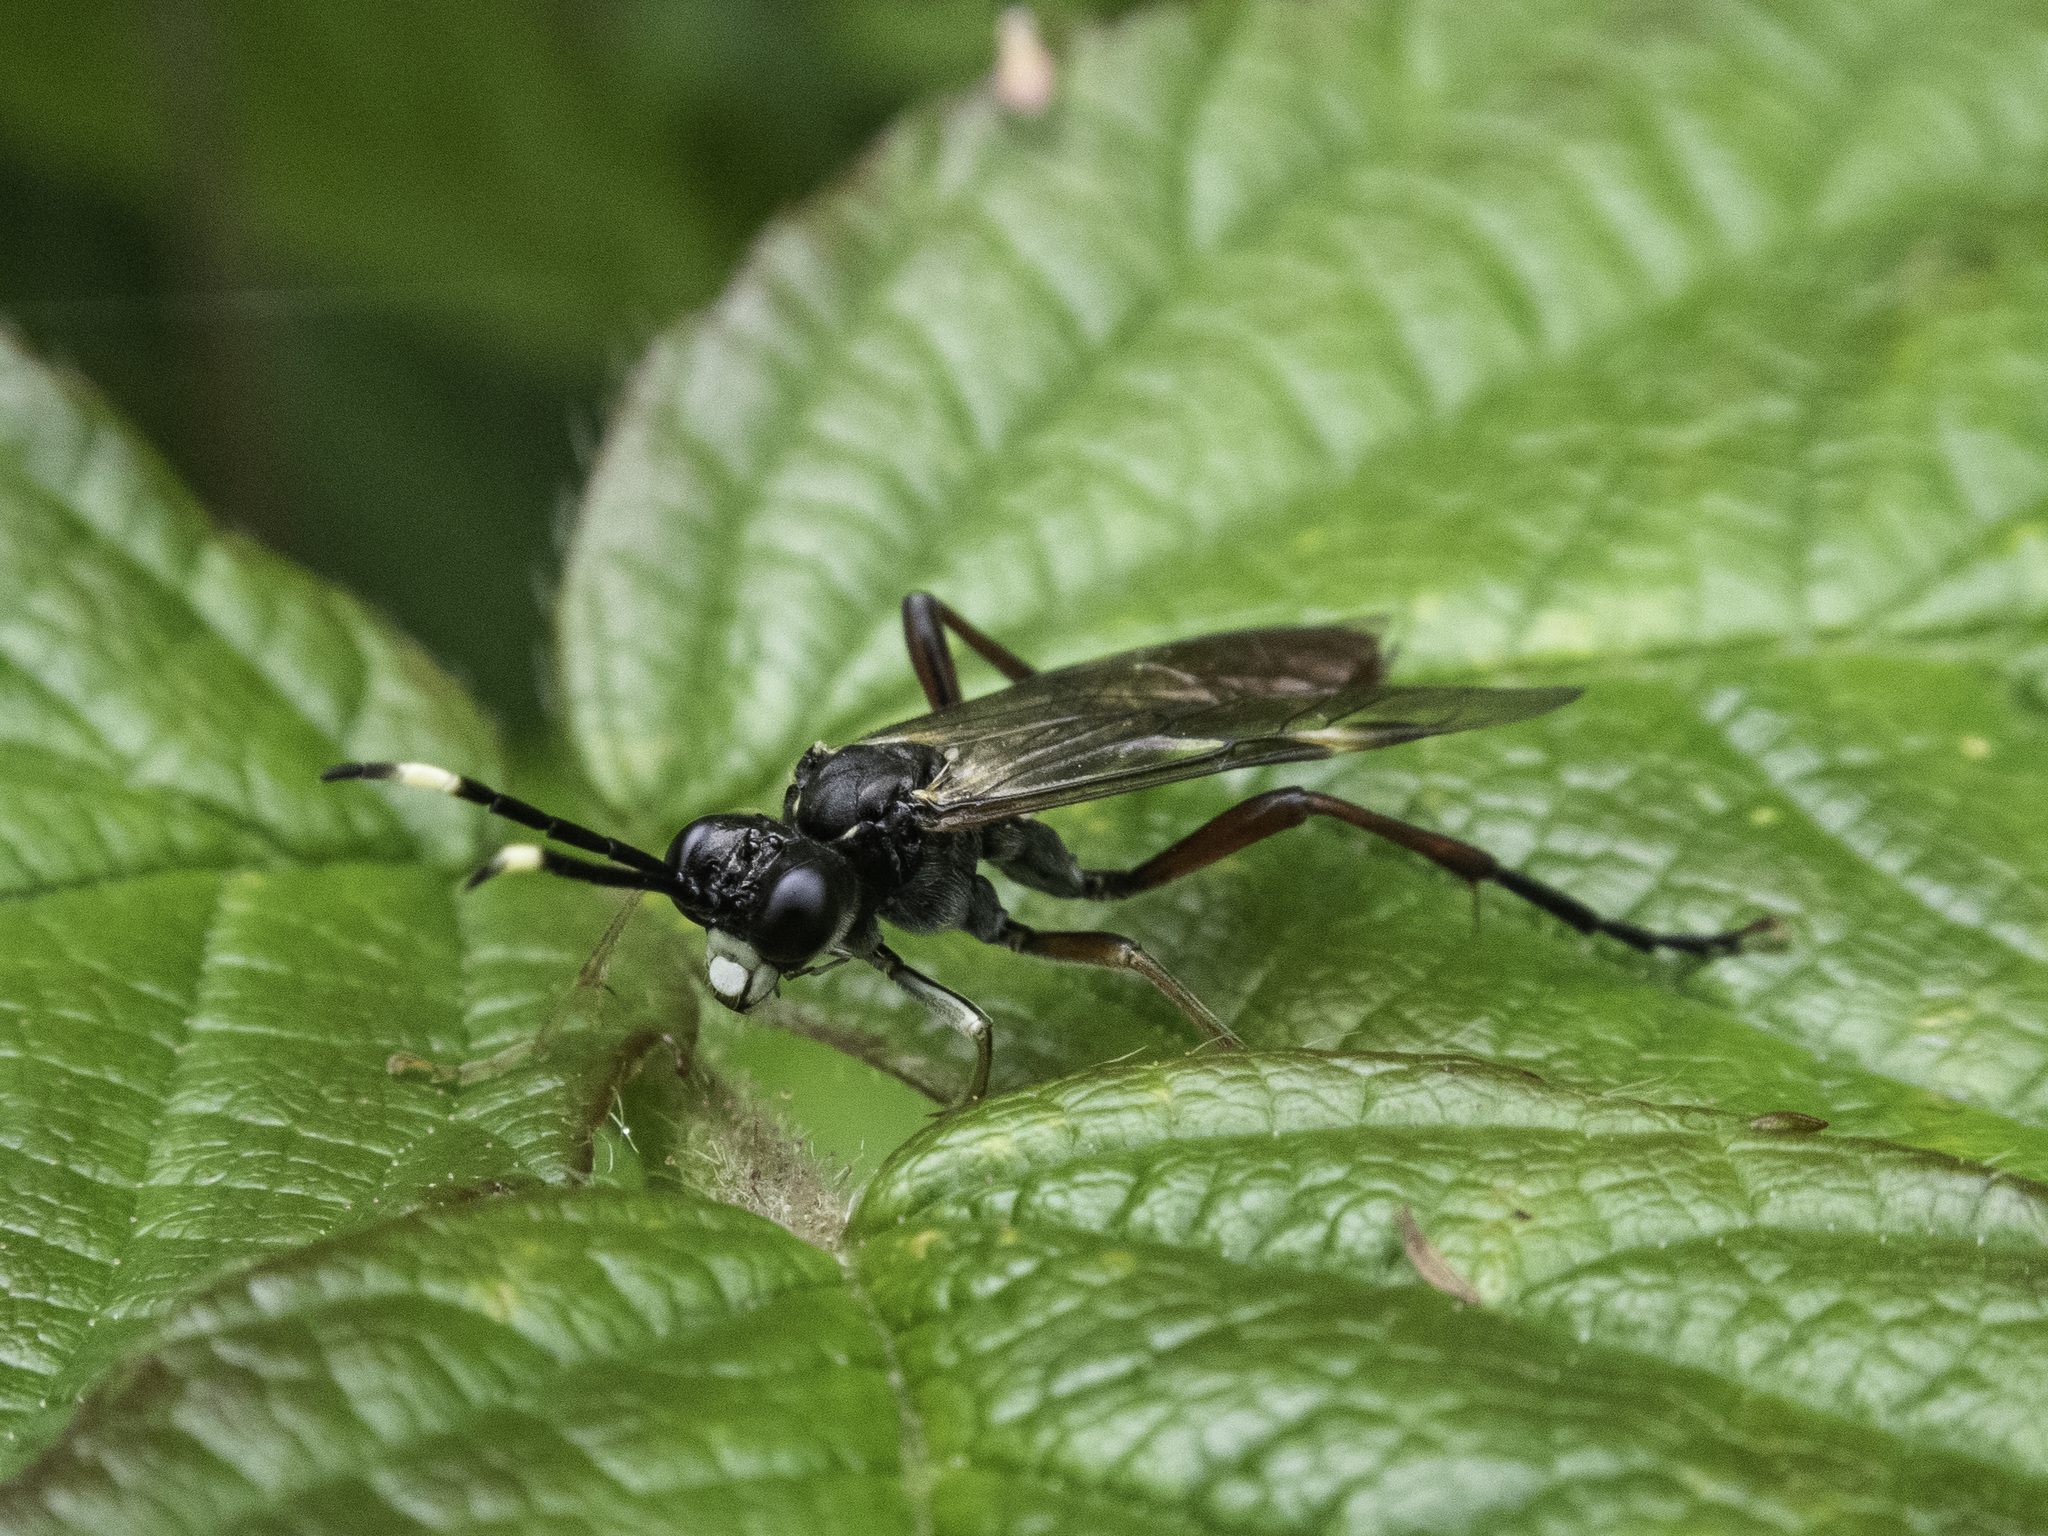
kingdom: Animalia
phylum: Arthropoda
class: Insecta
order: Hymenoptera
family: Tenthredinidae
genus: Tenthredo
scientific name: Tenthredo livida
